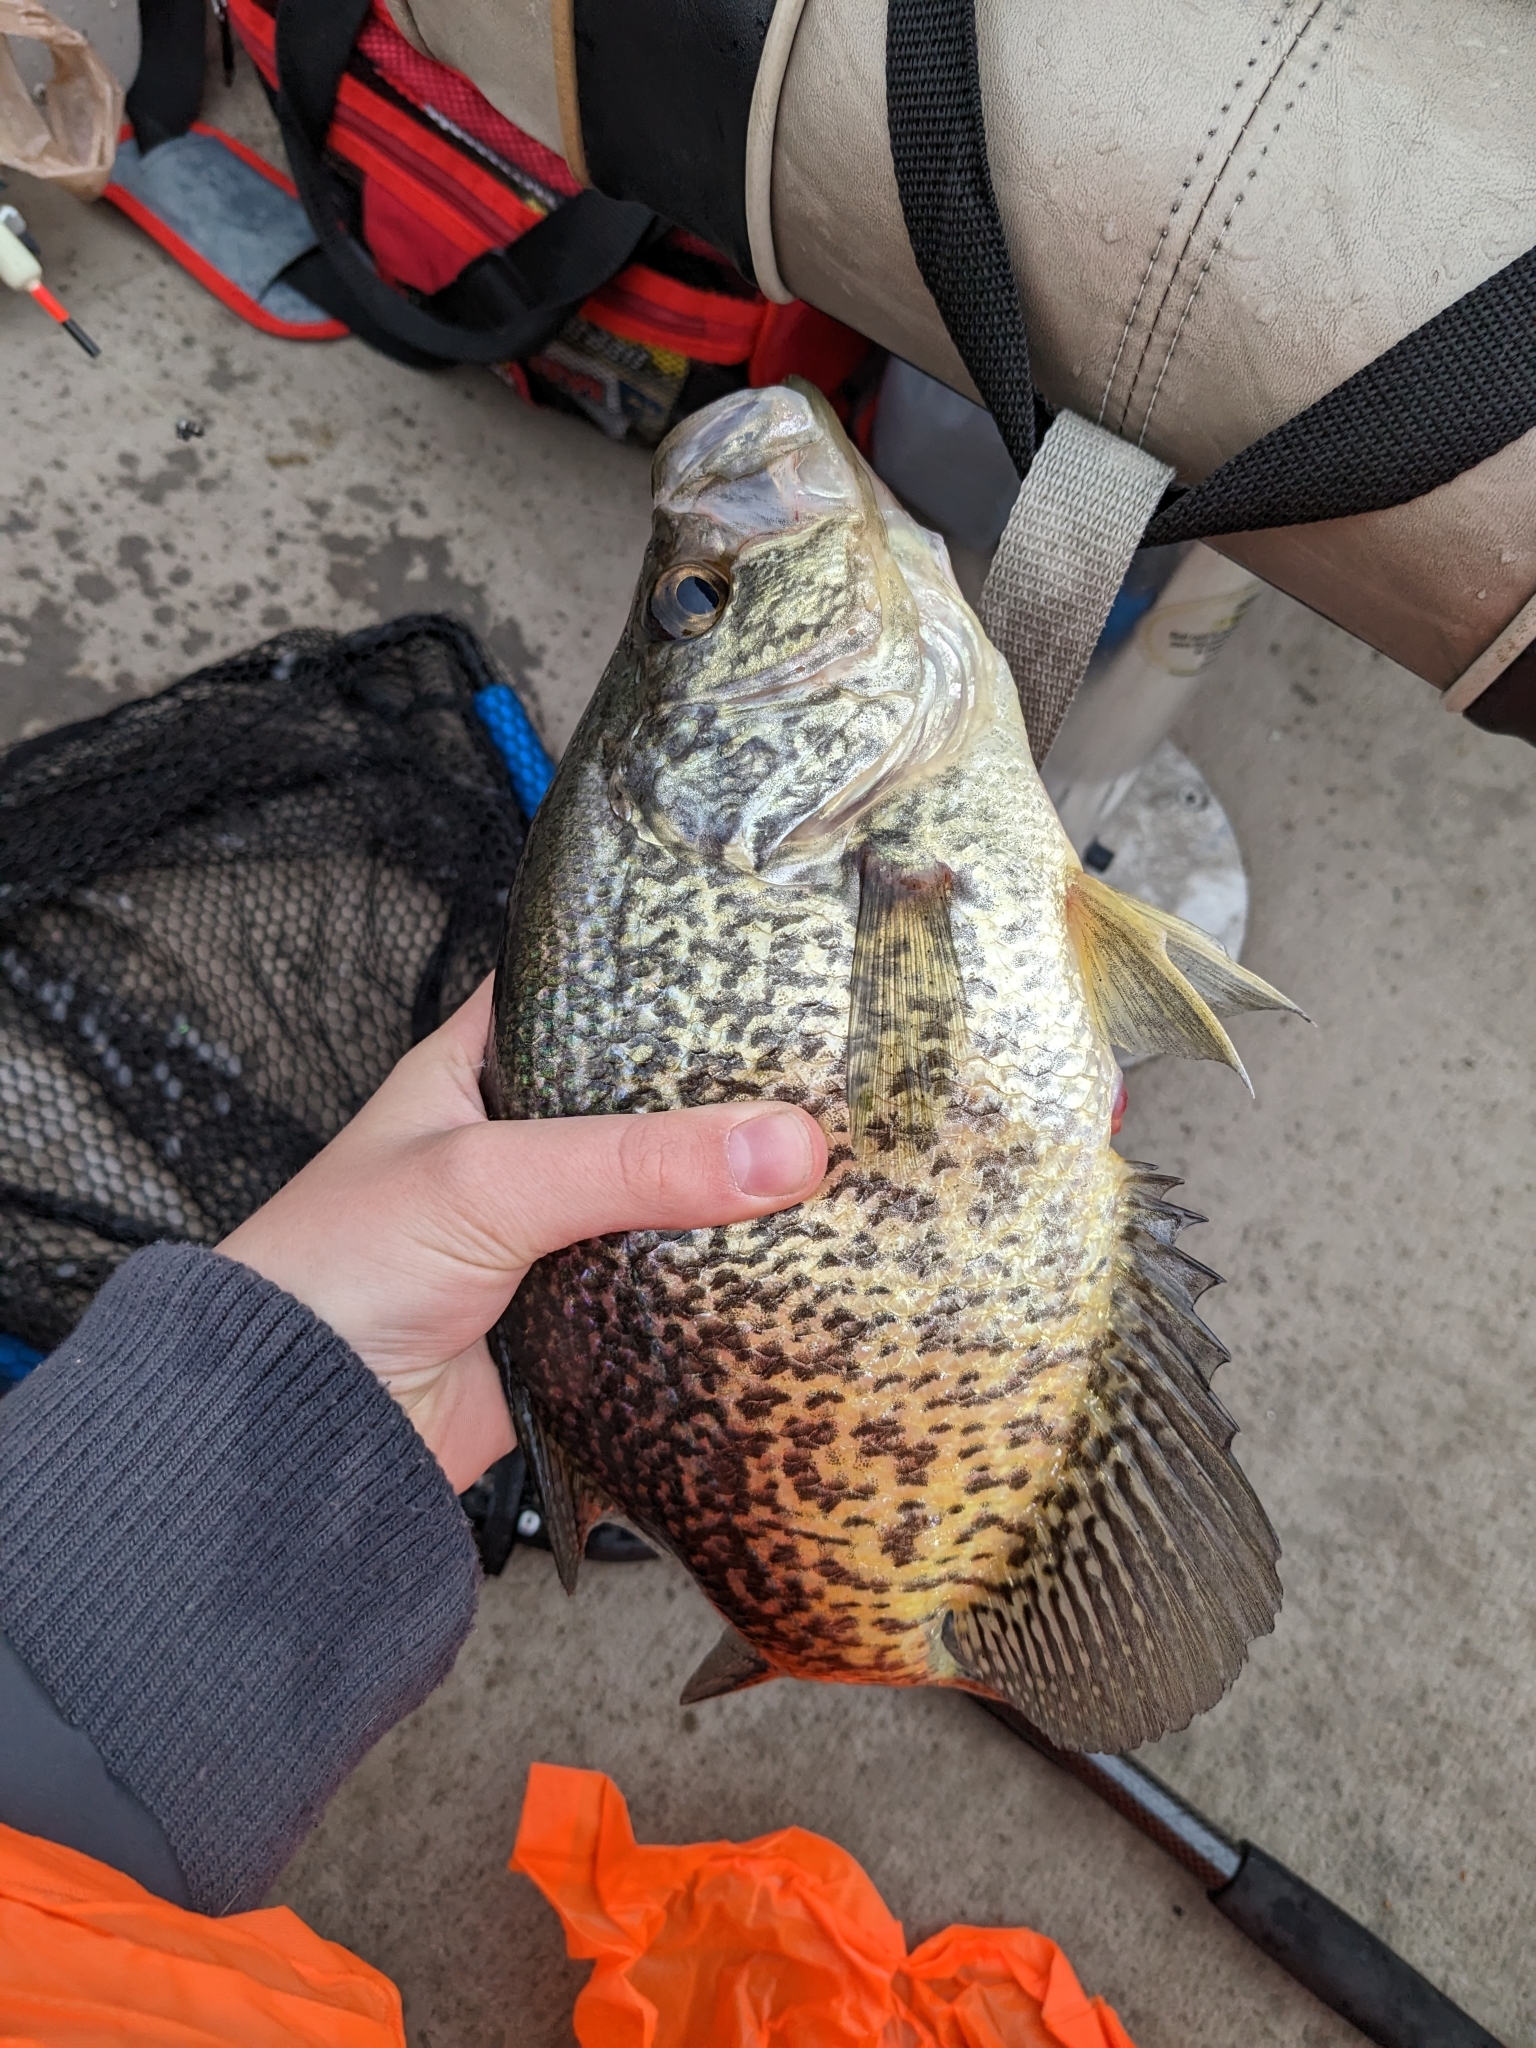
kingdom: Animalia
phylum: Chordata
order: Perciformes
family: Centrarchidae
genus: Pomoxis
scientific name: Pomoxis nigromaculatus
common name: Black crappie
